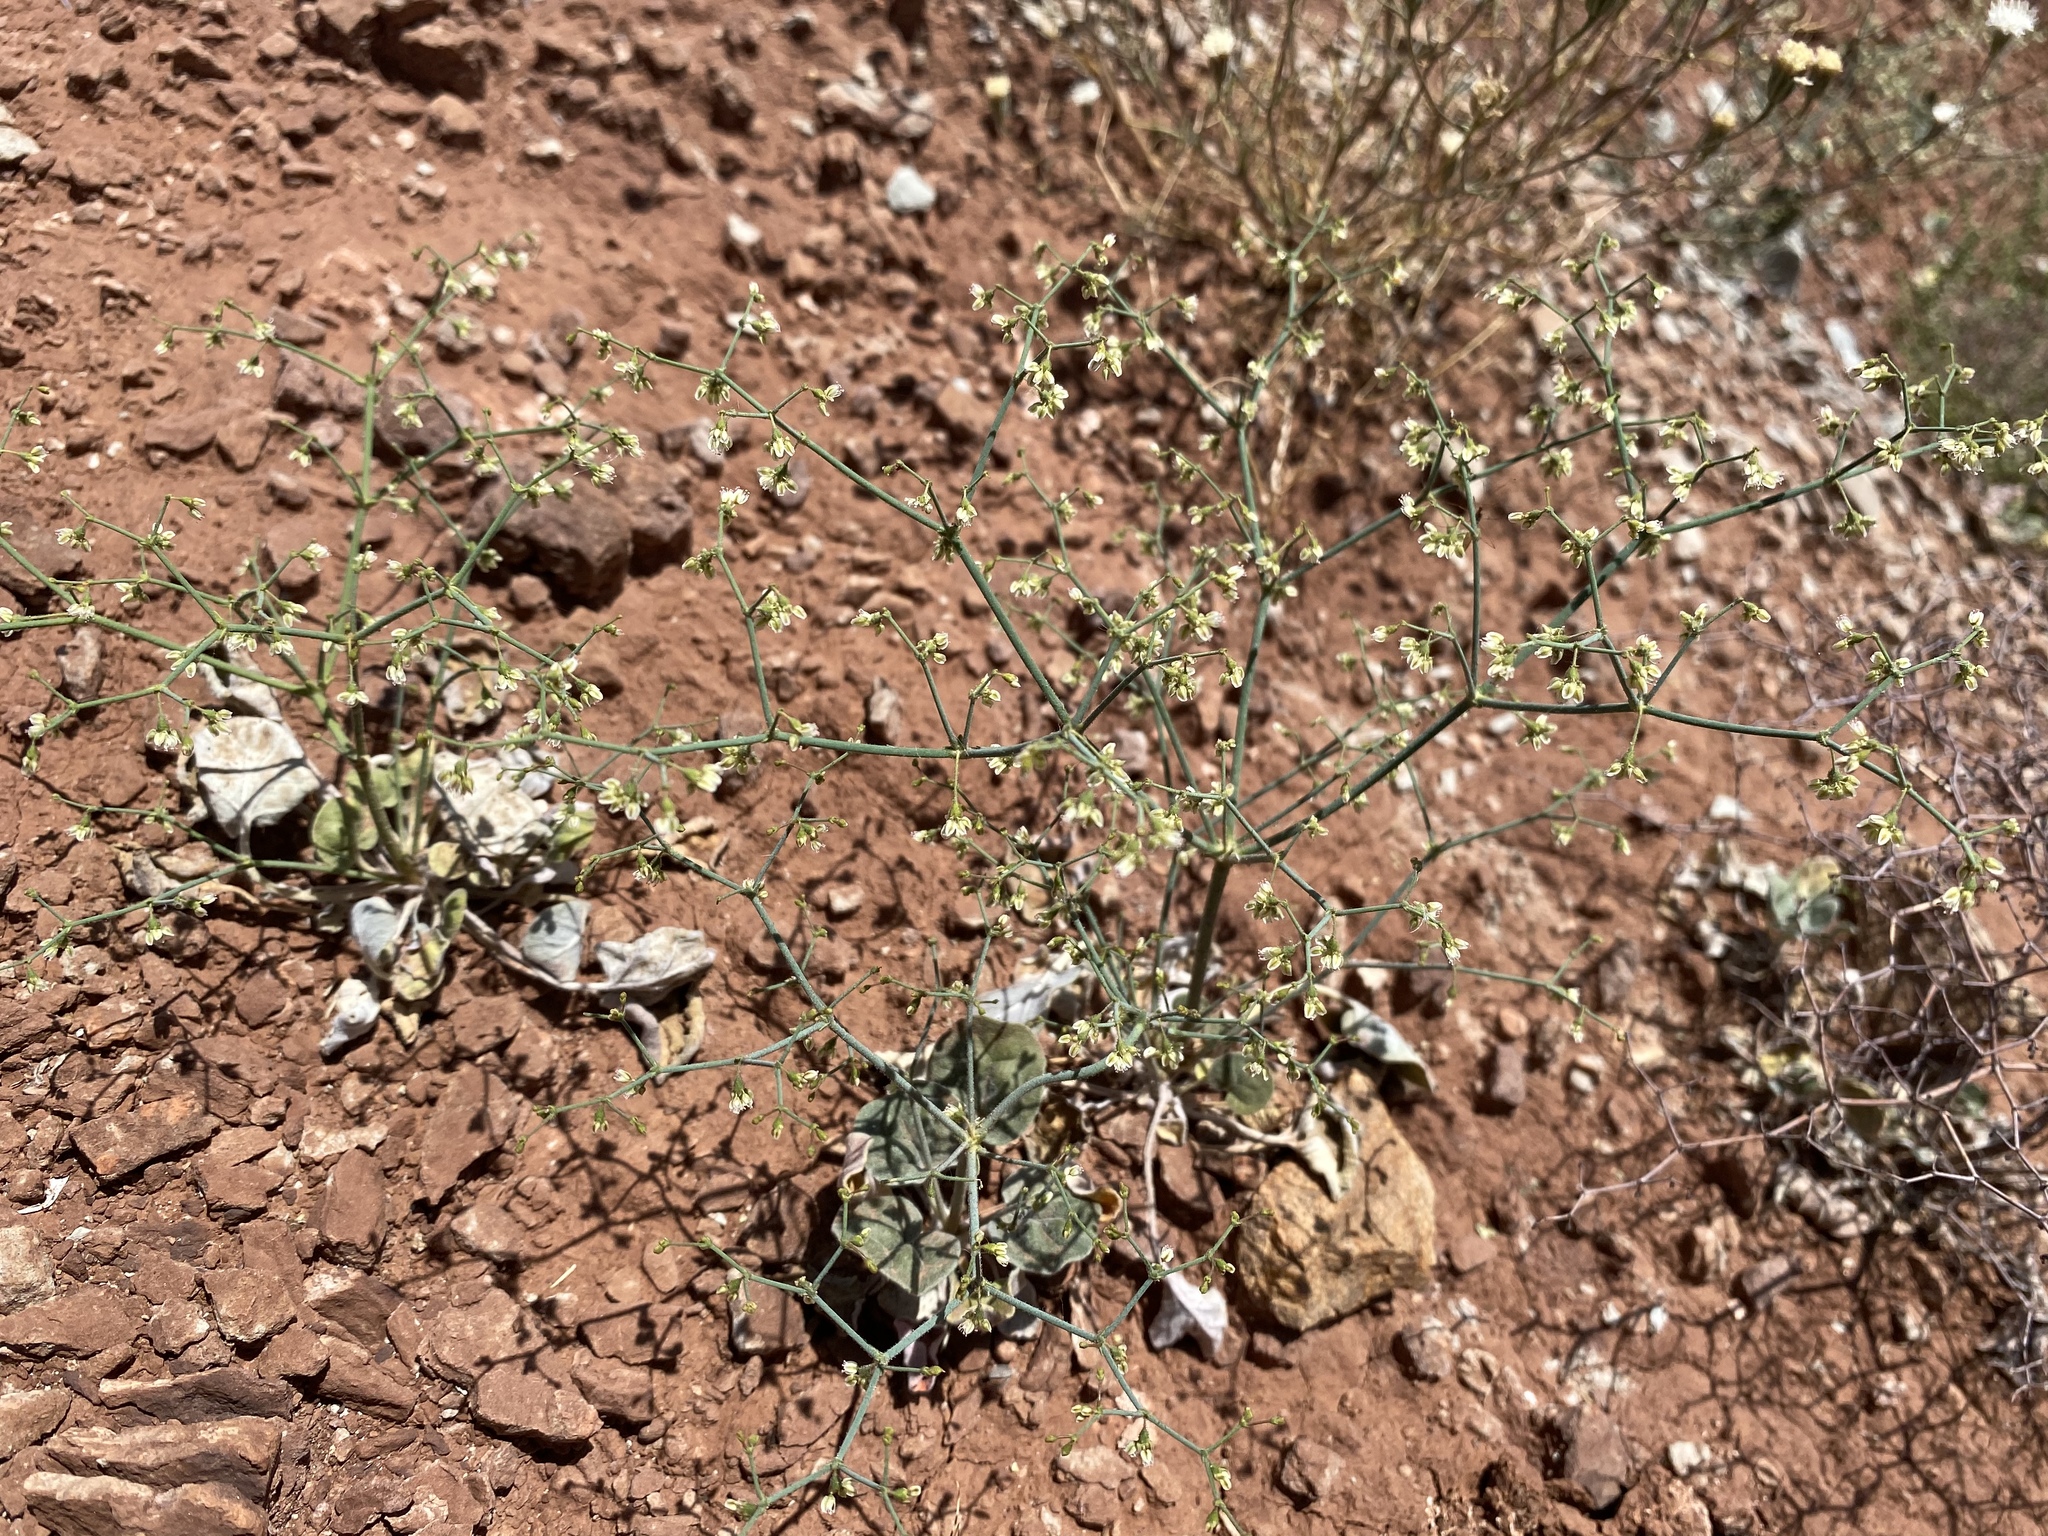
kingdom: Plantae
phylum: Tracheophyta
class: Magnoliopsida
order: Caryophyllales
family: Polygonaceae
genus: Eriogonum
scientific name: Eriogonum brachypodum
